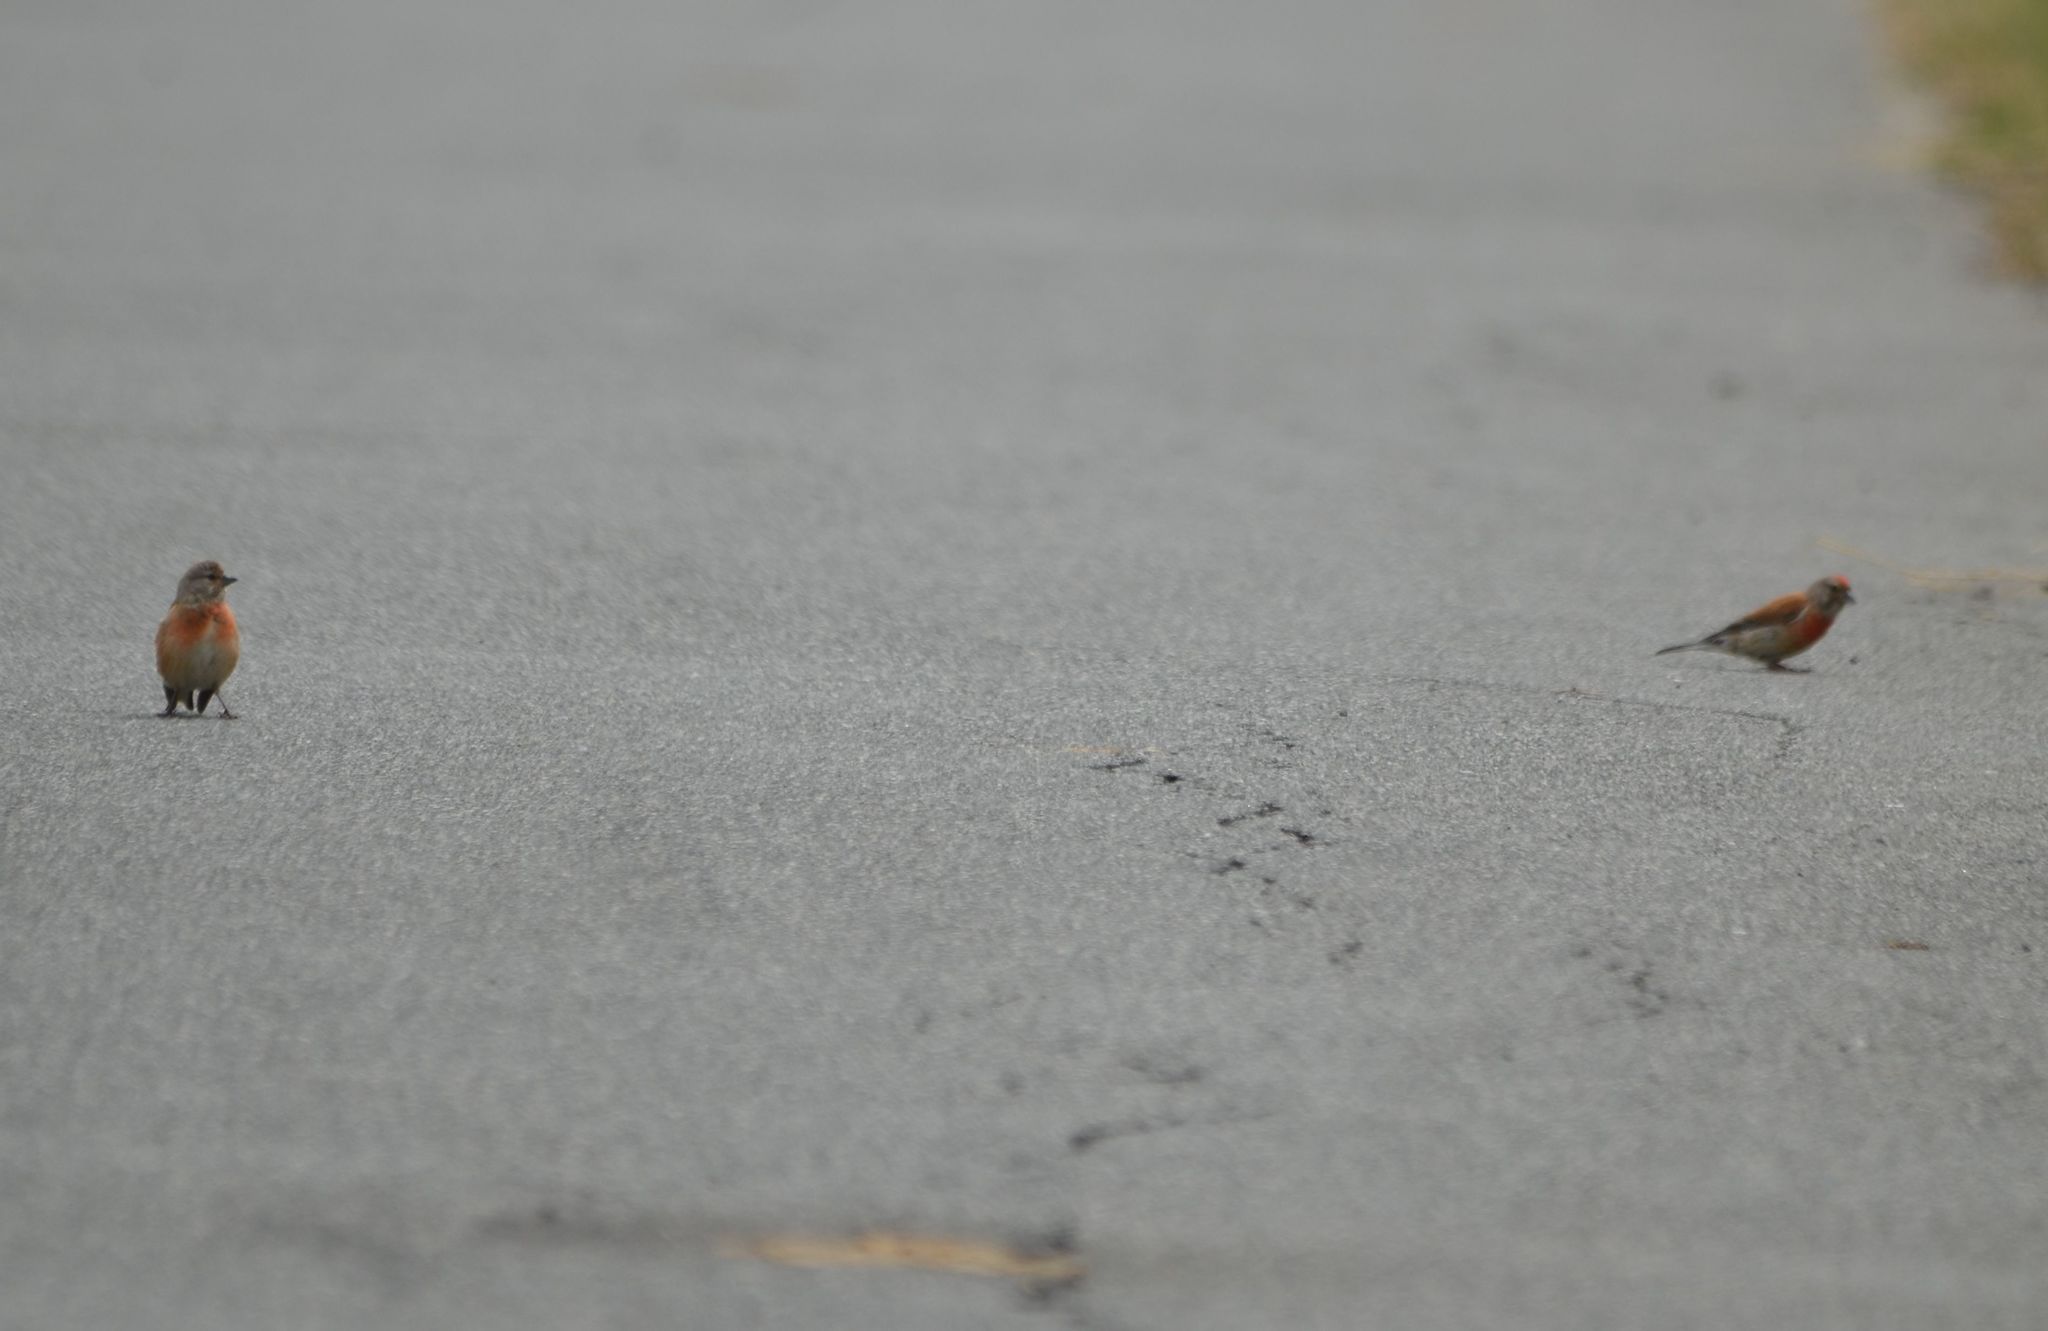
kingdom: Animalia
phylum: Chordata
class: Aves
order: Passeriformes
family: Fringillidae
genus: Linaria
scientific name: Linaria cannabina
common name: Common linnet
